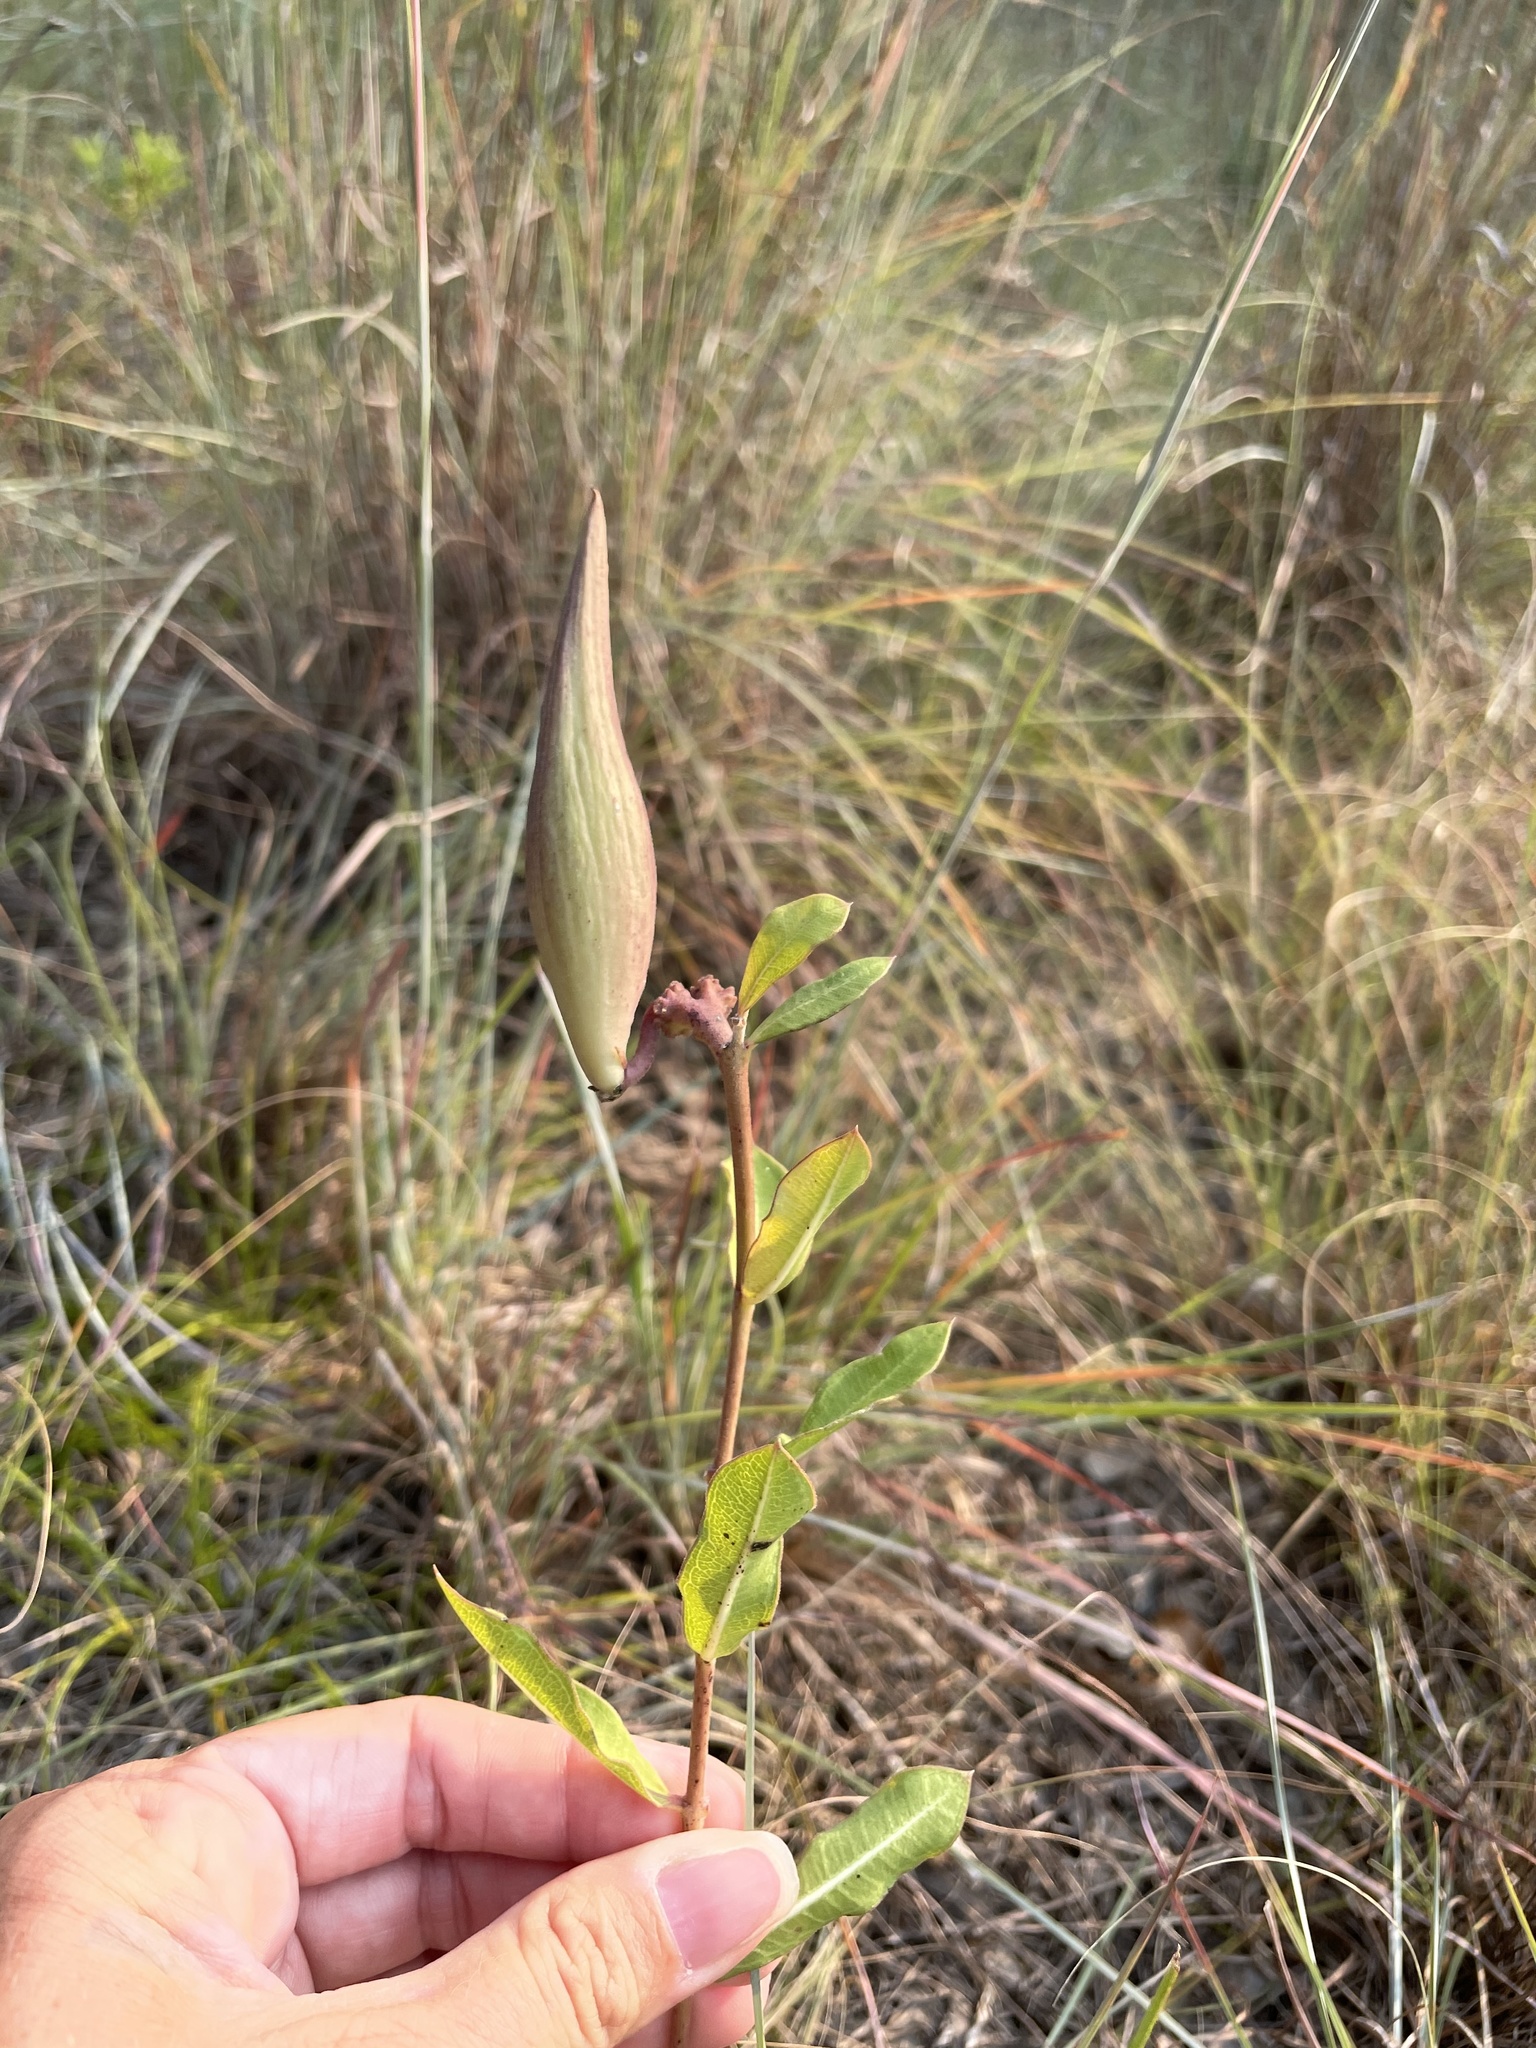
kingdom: Plantae
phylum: Tracheophyta
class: Magnoliopsida
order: Gentianales
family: Apocynaceae
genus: Asclepias
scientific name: Asclepias viridiflora
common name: Green comet milkweed
